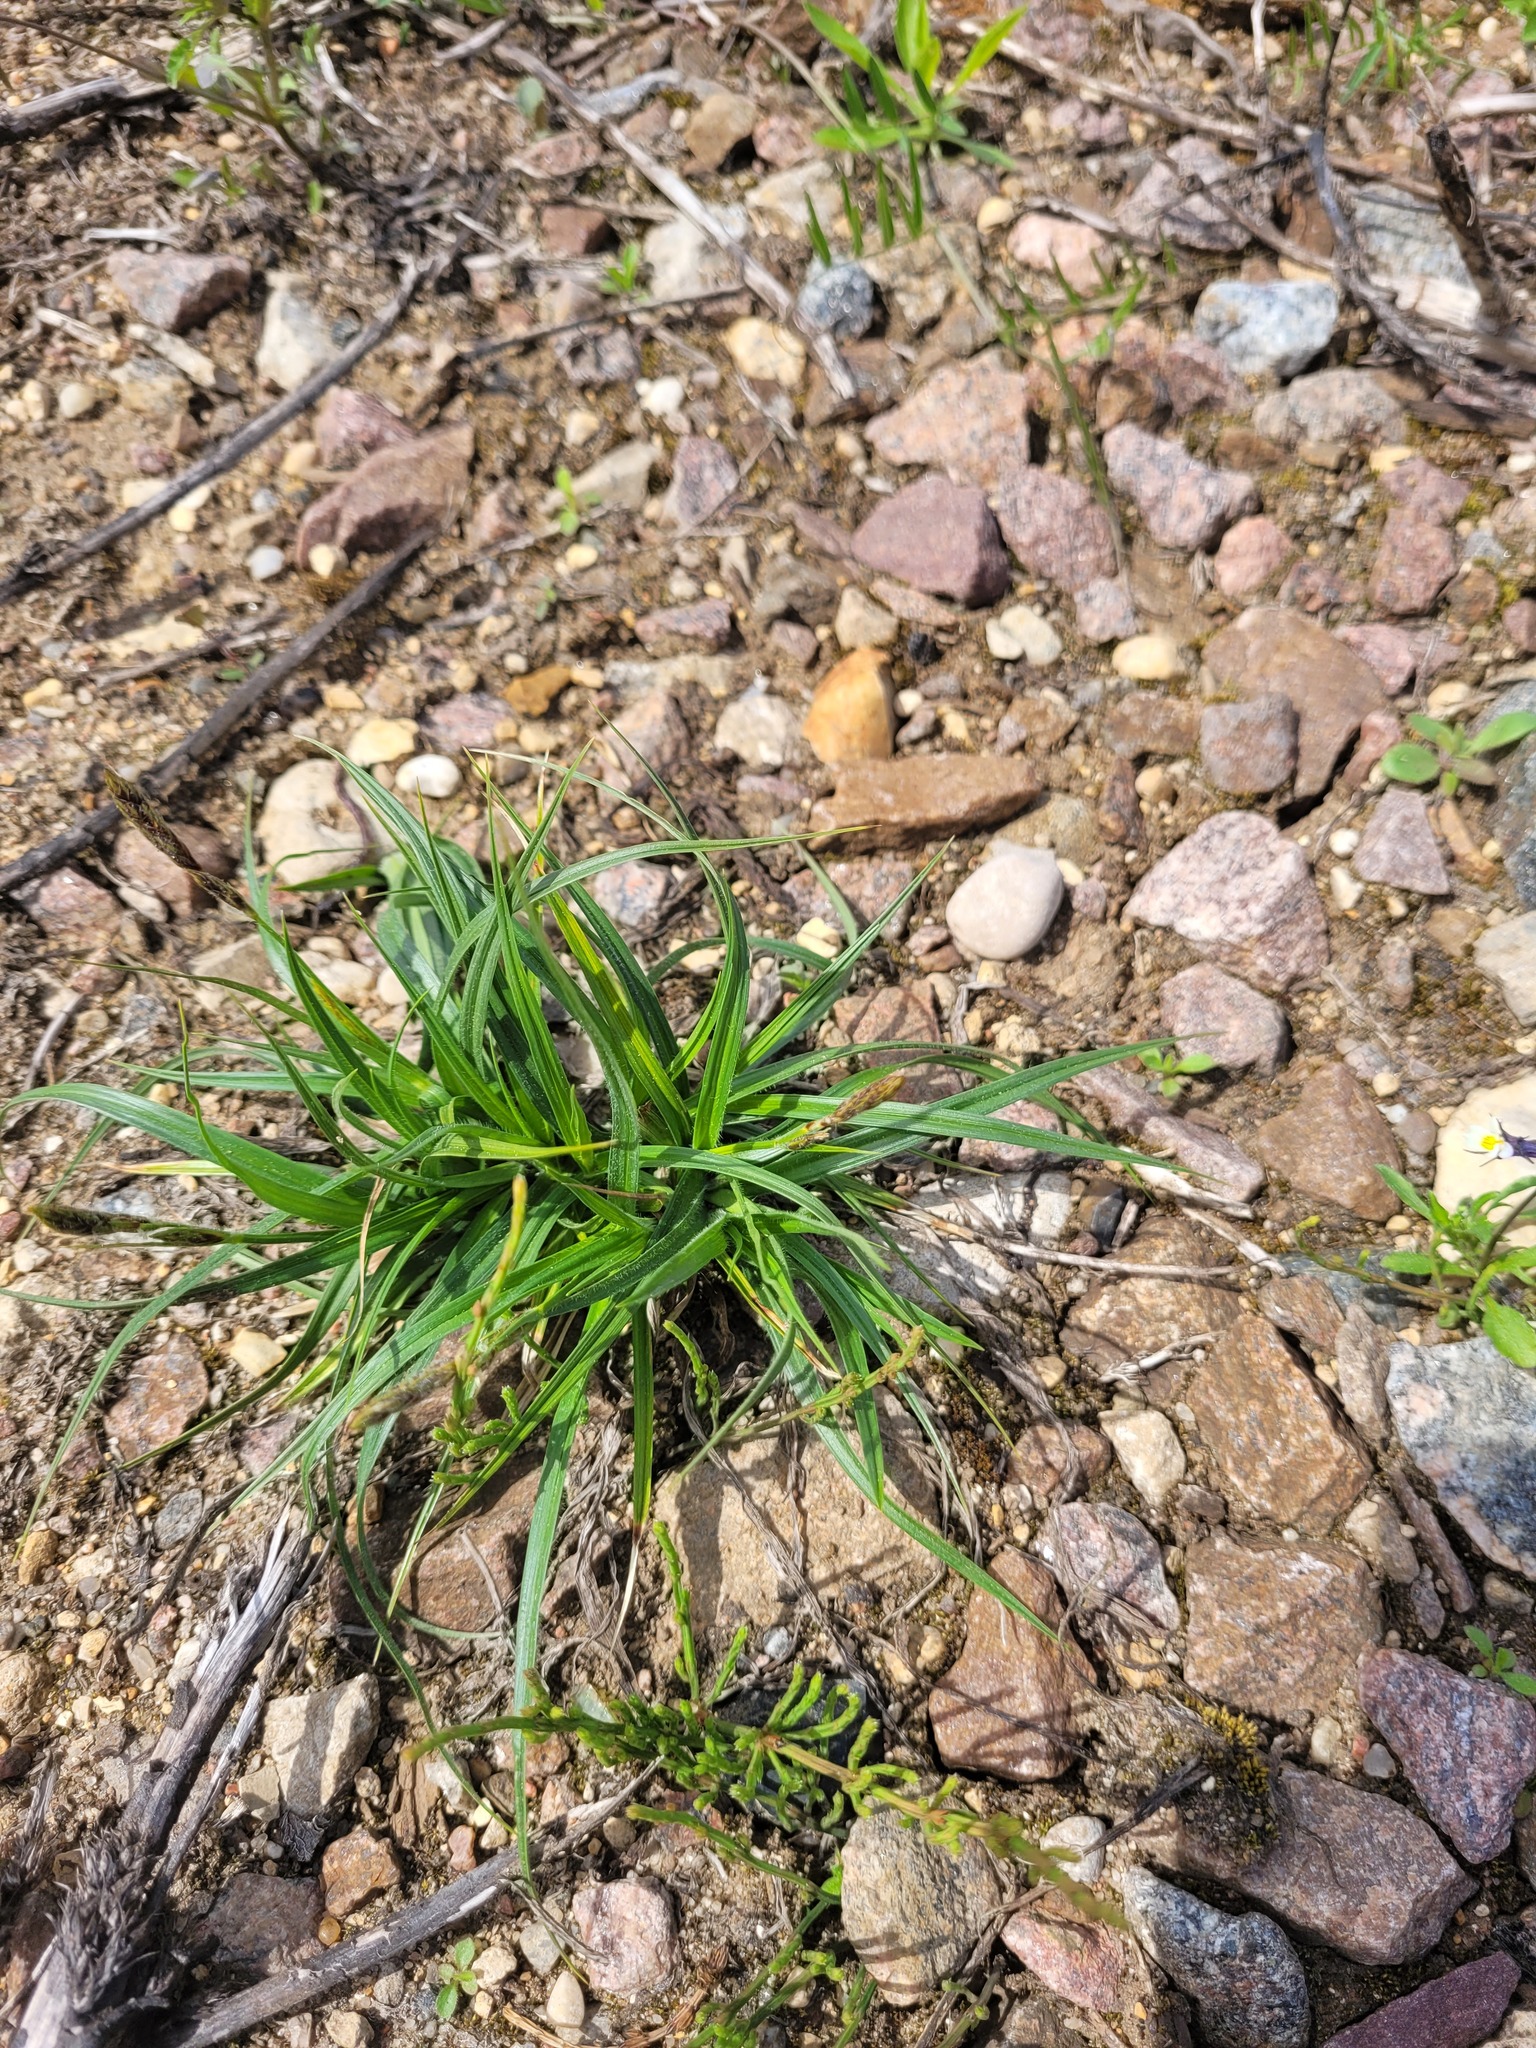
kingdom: Plantae
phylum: Tracheophyta
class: Liliopsida
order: Poales
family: Cyperaceae
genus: Carex
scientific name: Carex hirta
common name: Hairy sedge
